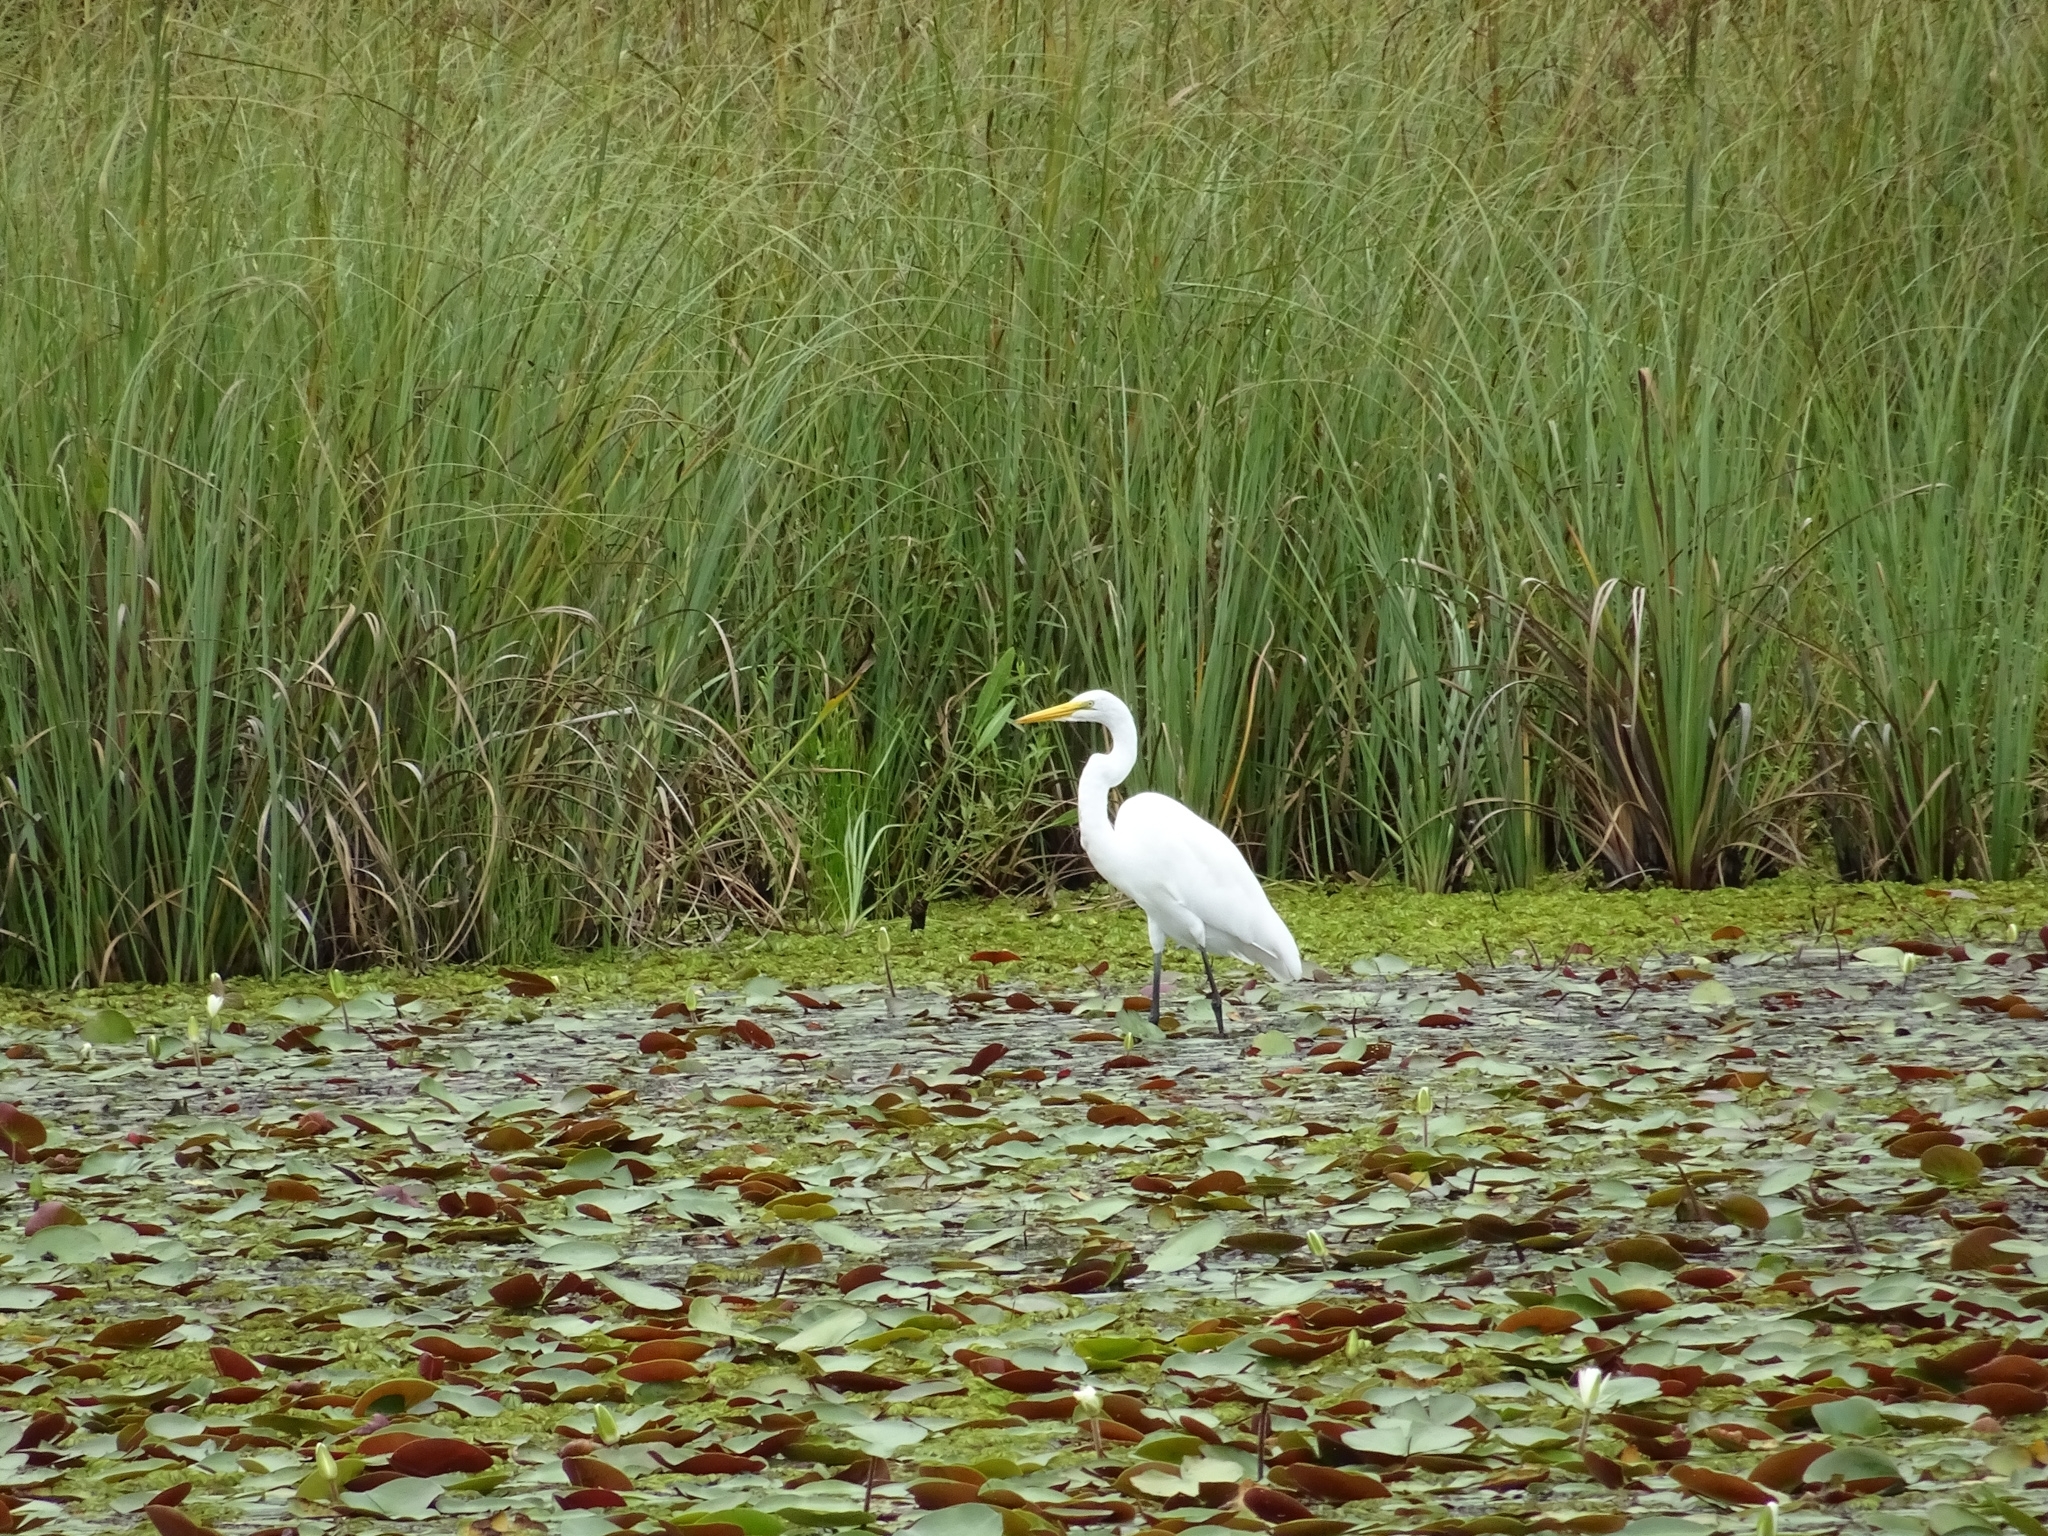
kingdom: Animalia
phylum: Chordata
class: Aves
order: Pelecaniformes
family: Ardeidae
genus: Ardea
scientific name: Ardea alba
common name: Great egret
